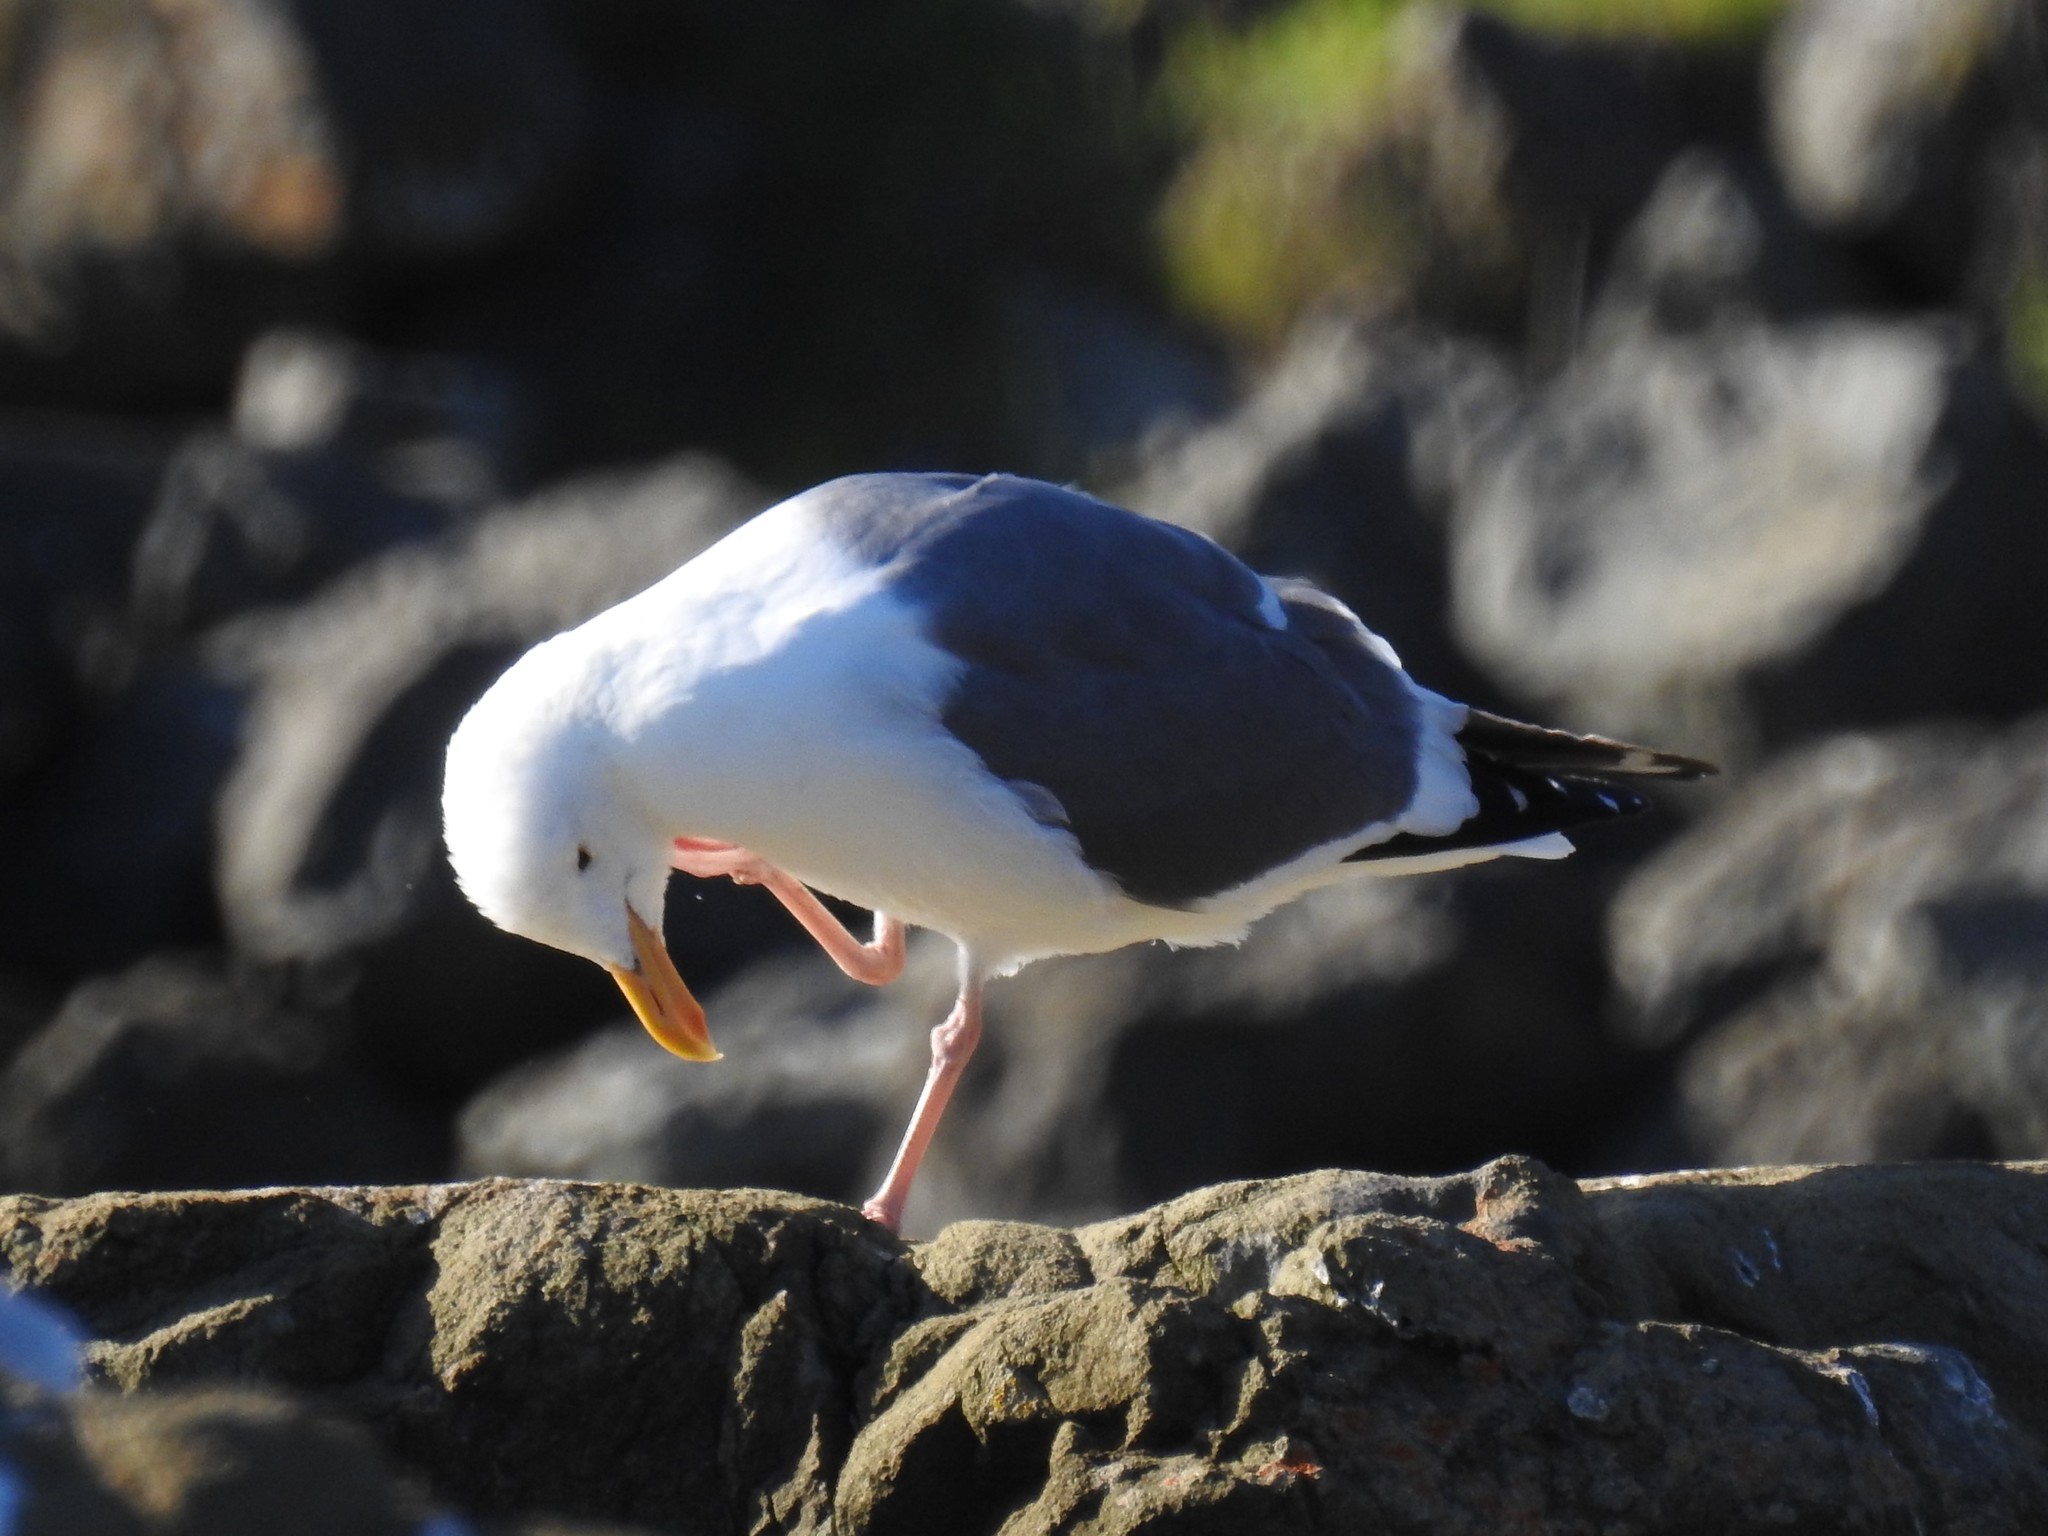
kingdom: Animalia
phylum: Chordata
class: Aves
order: Charadriiformes
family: Laridae
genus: Larus
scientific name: Larus occidentalis
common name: Western gull
